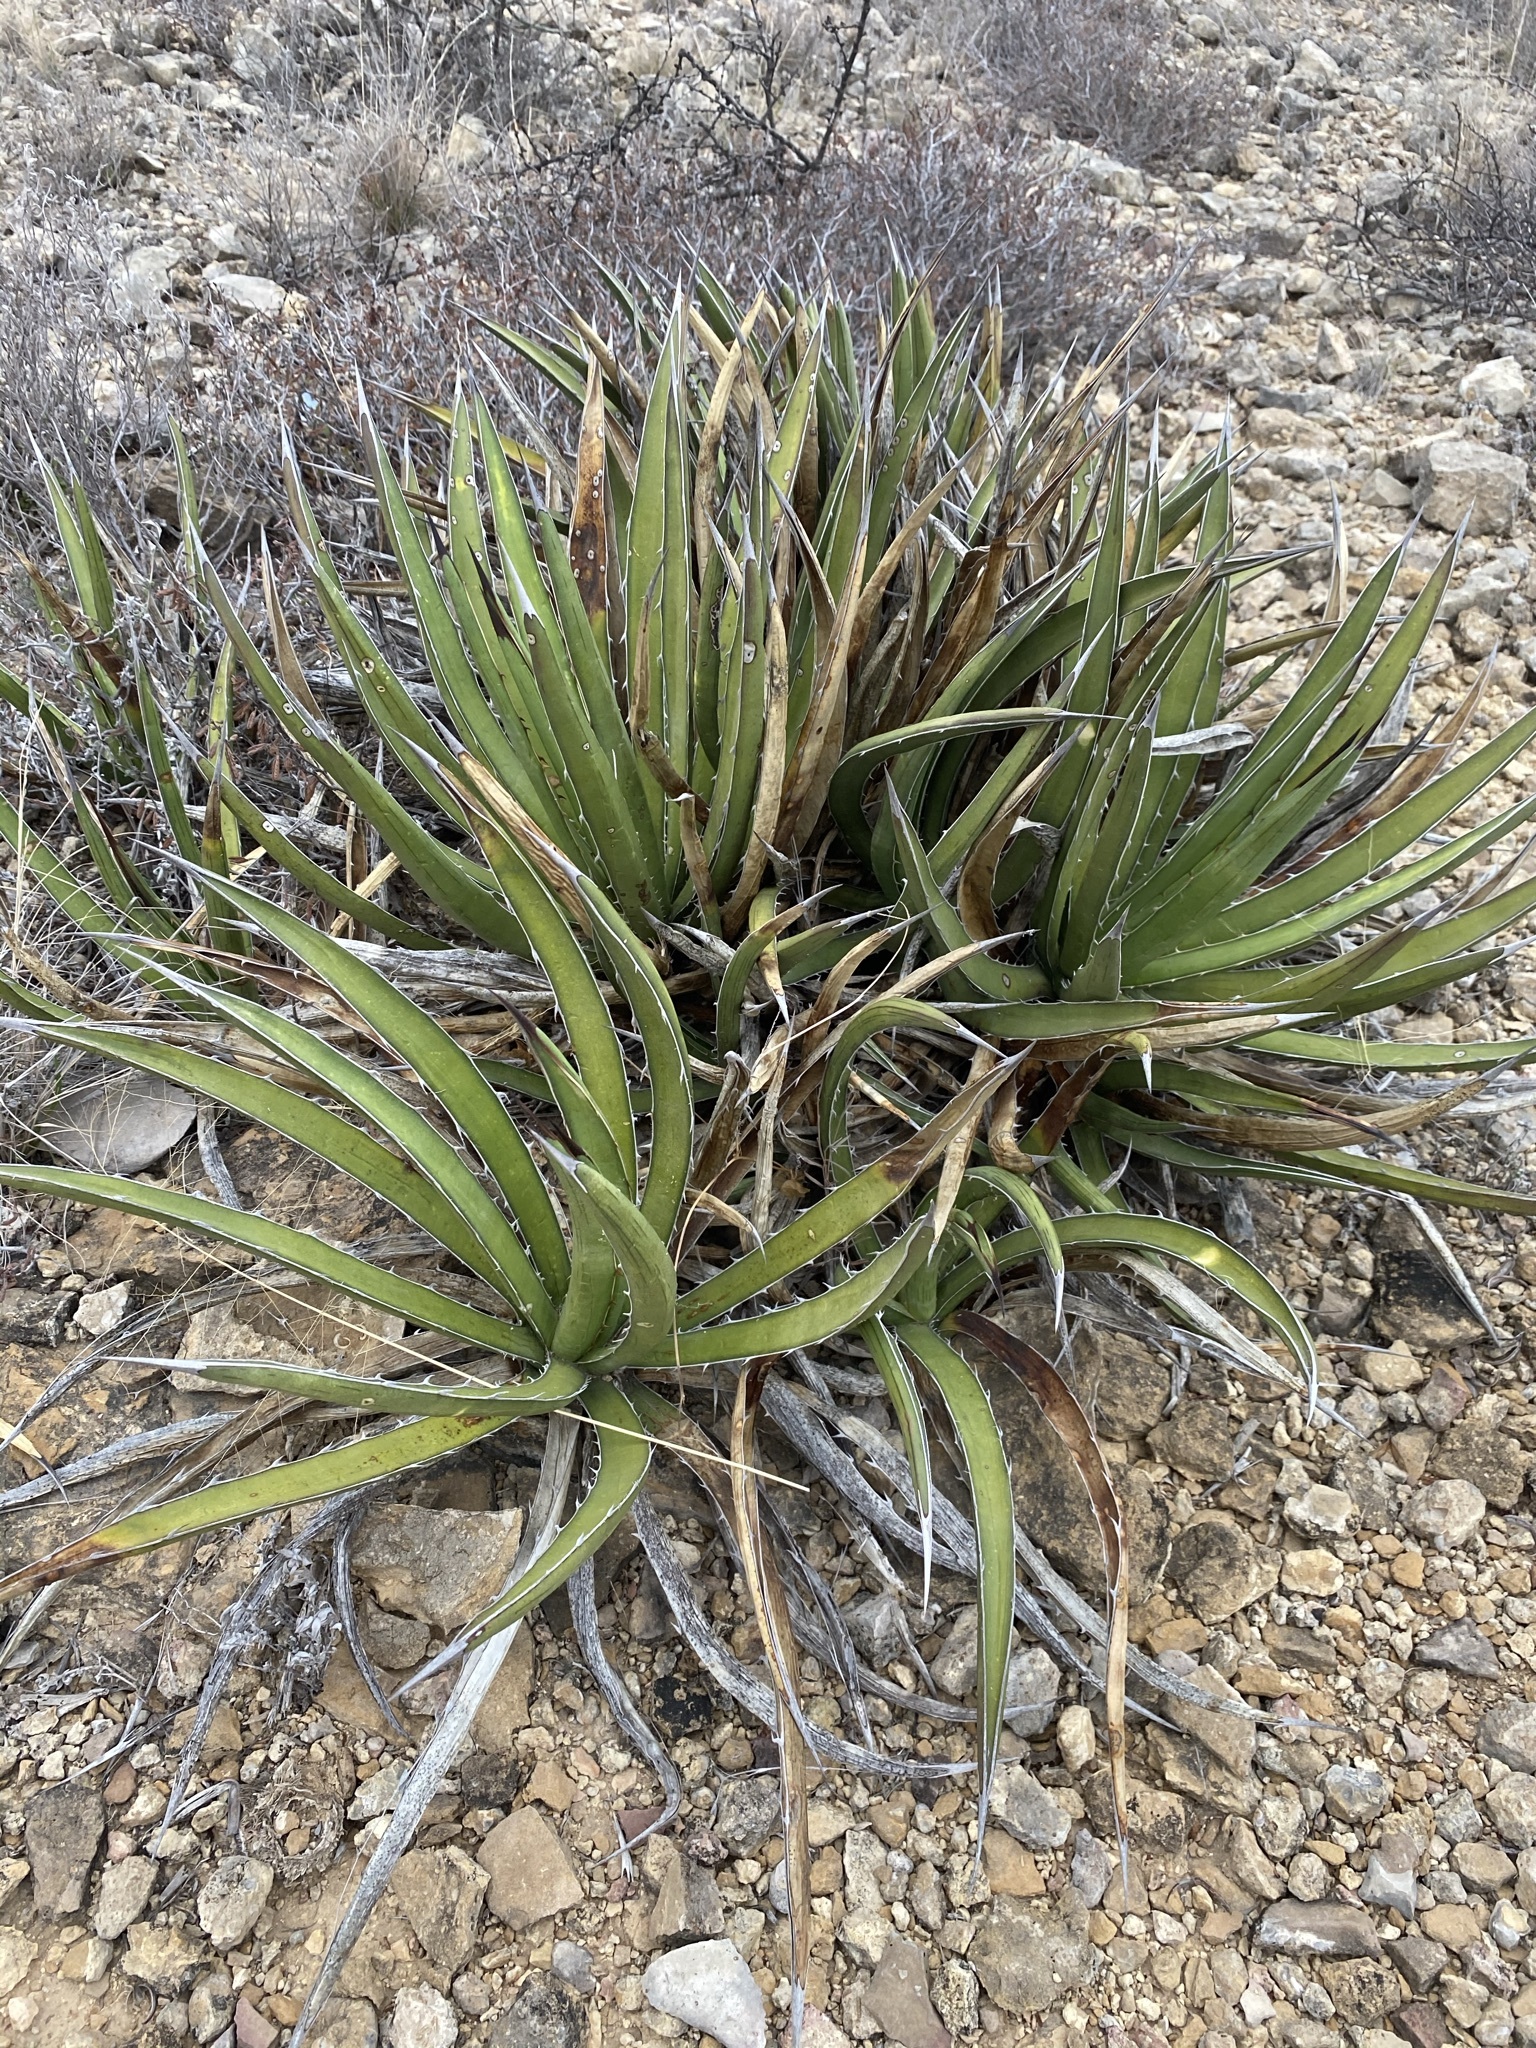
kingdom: Plantae
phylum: Tracheophyta
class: Liliopsida
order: Asparagales
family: Asparagaceae
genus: Agave
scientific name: Agave lechuguilla
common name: Lecheguilla agave
